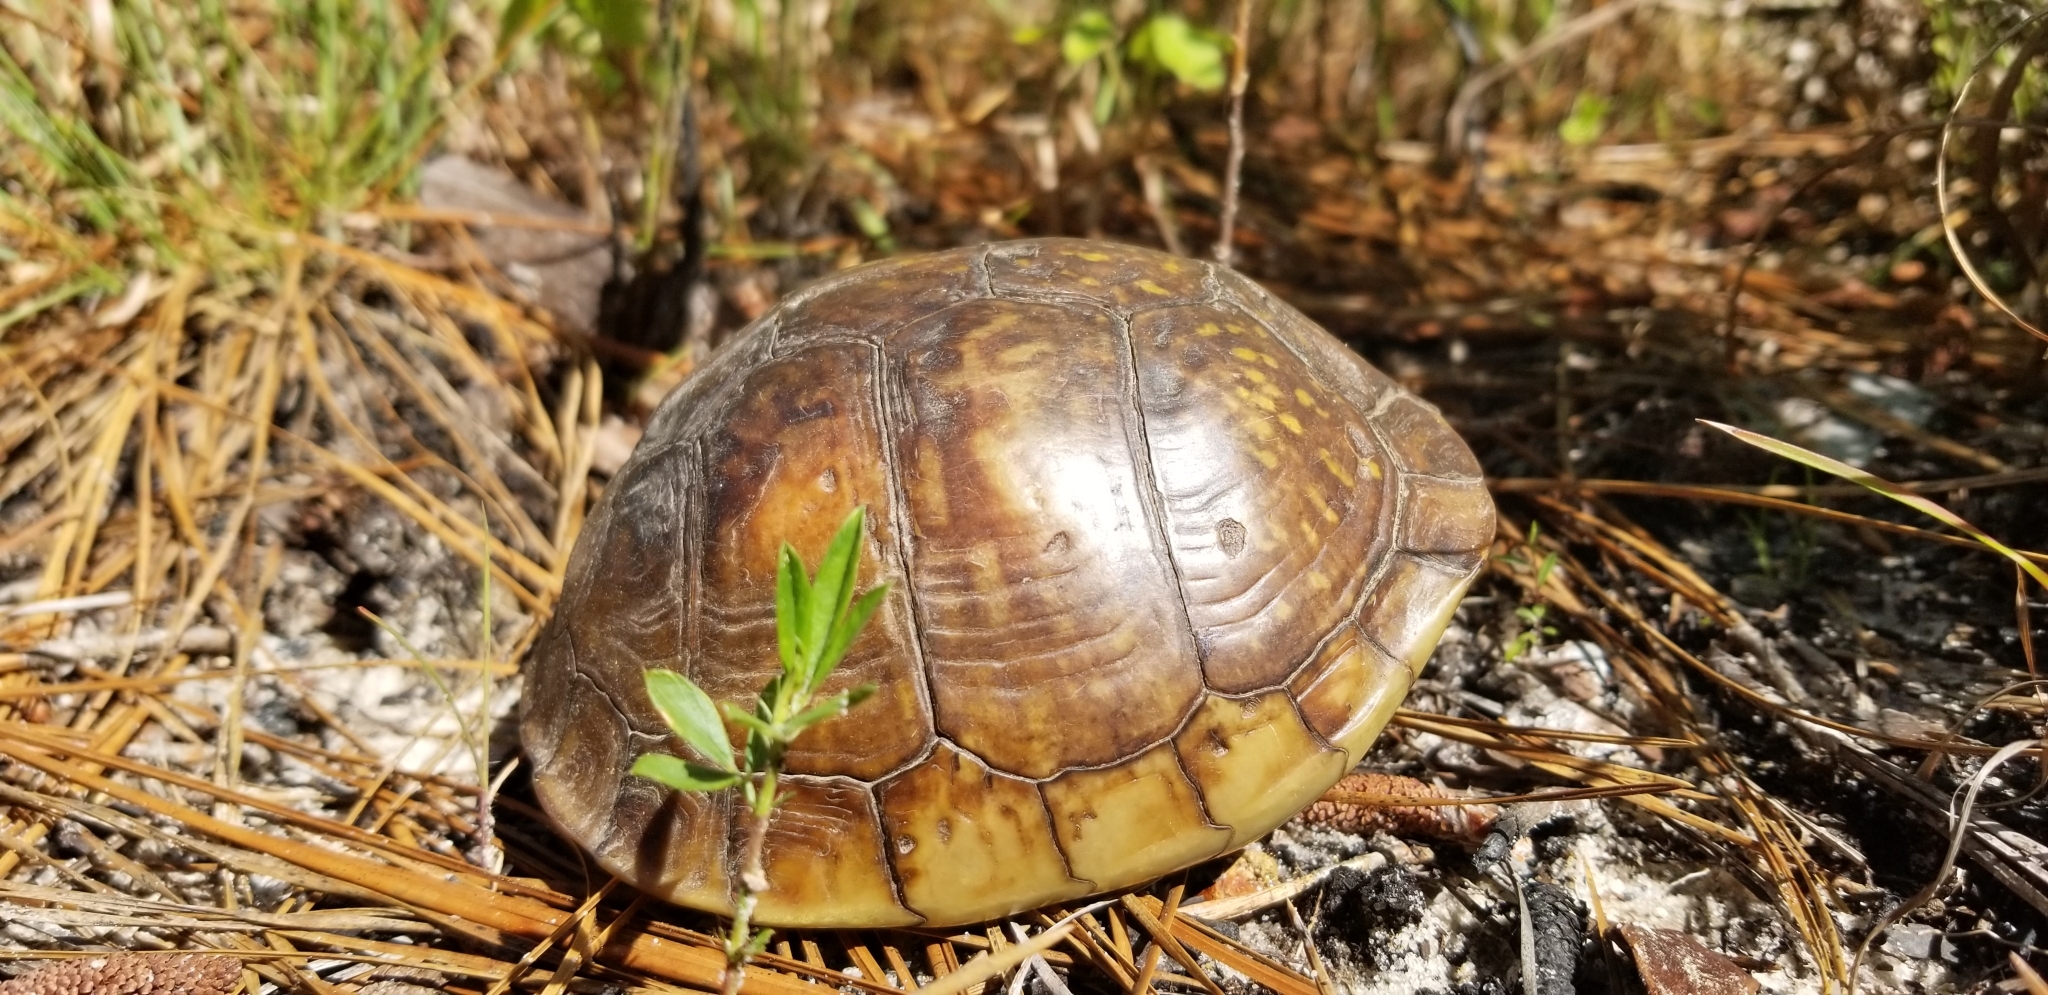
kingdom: Animalia
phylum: Chordata
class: Testudines
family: Emydidae
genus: Terrapene
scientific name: Terrapene carolina
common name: Common box turtle
